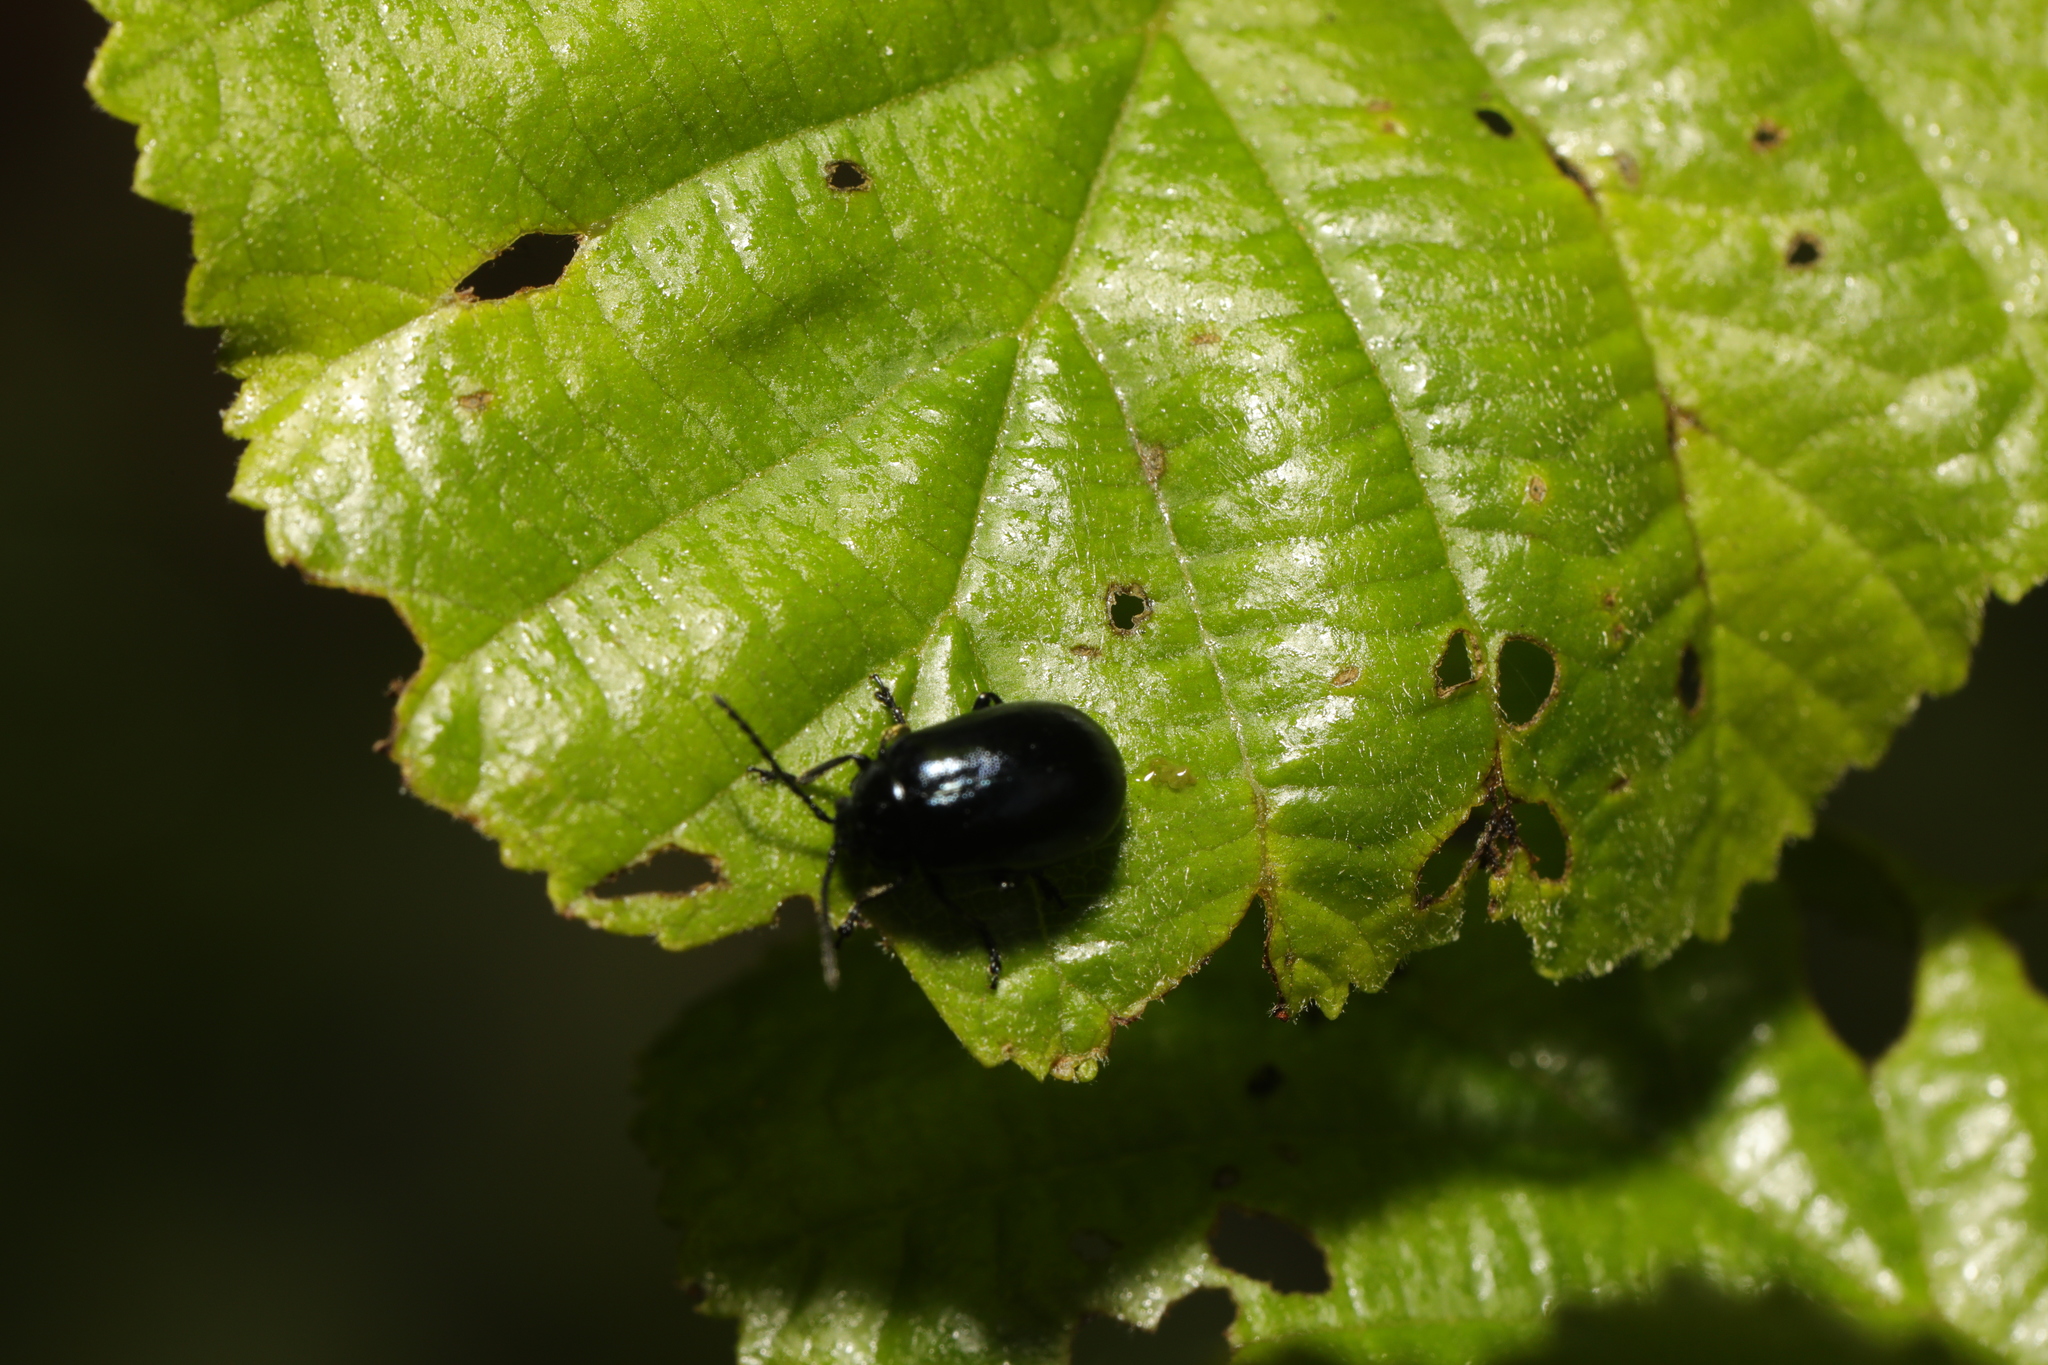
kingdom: Animalia
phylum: Arthropoda
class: Insecta
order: Coleoptera
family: Chrysomelidae
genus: Agelastica
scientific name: Agelastica alni
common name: Alder leaf beetle
